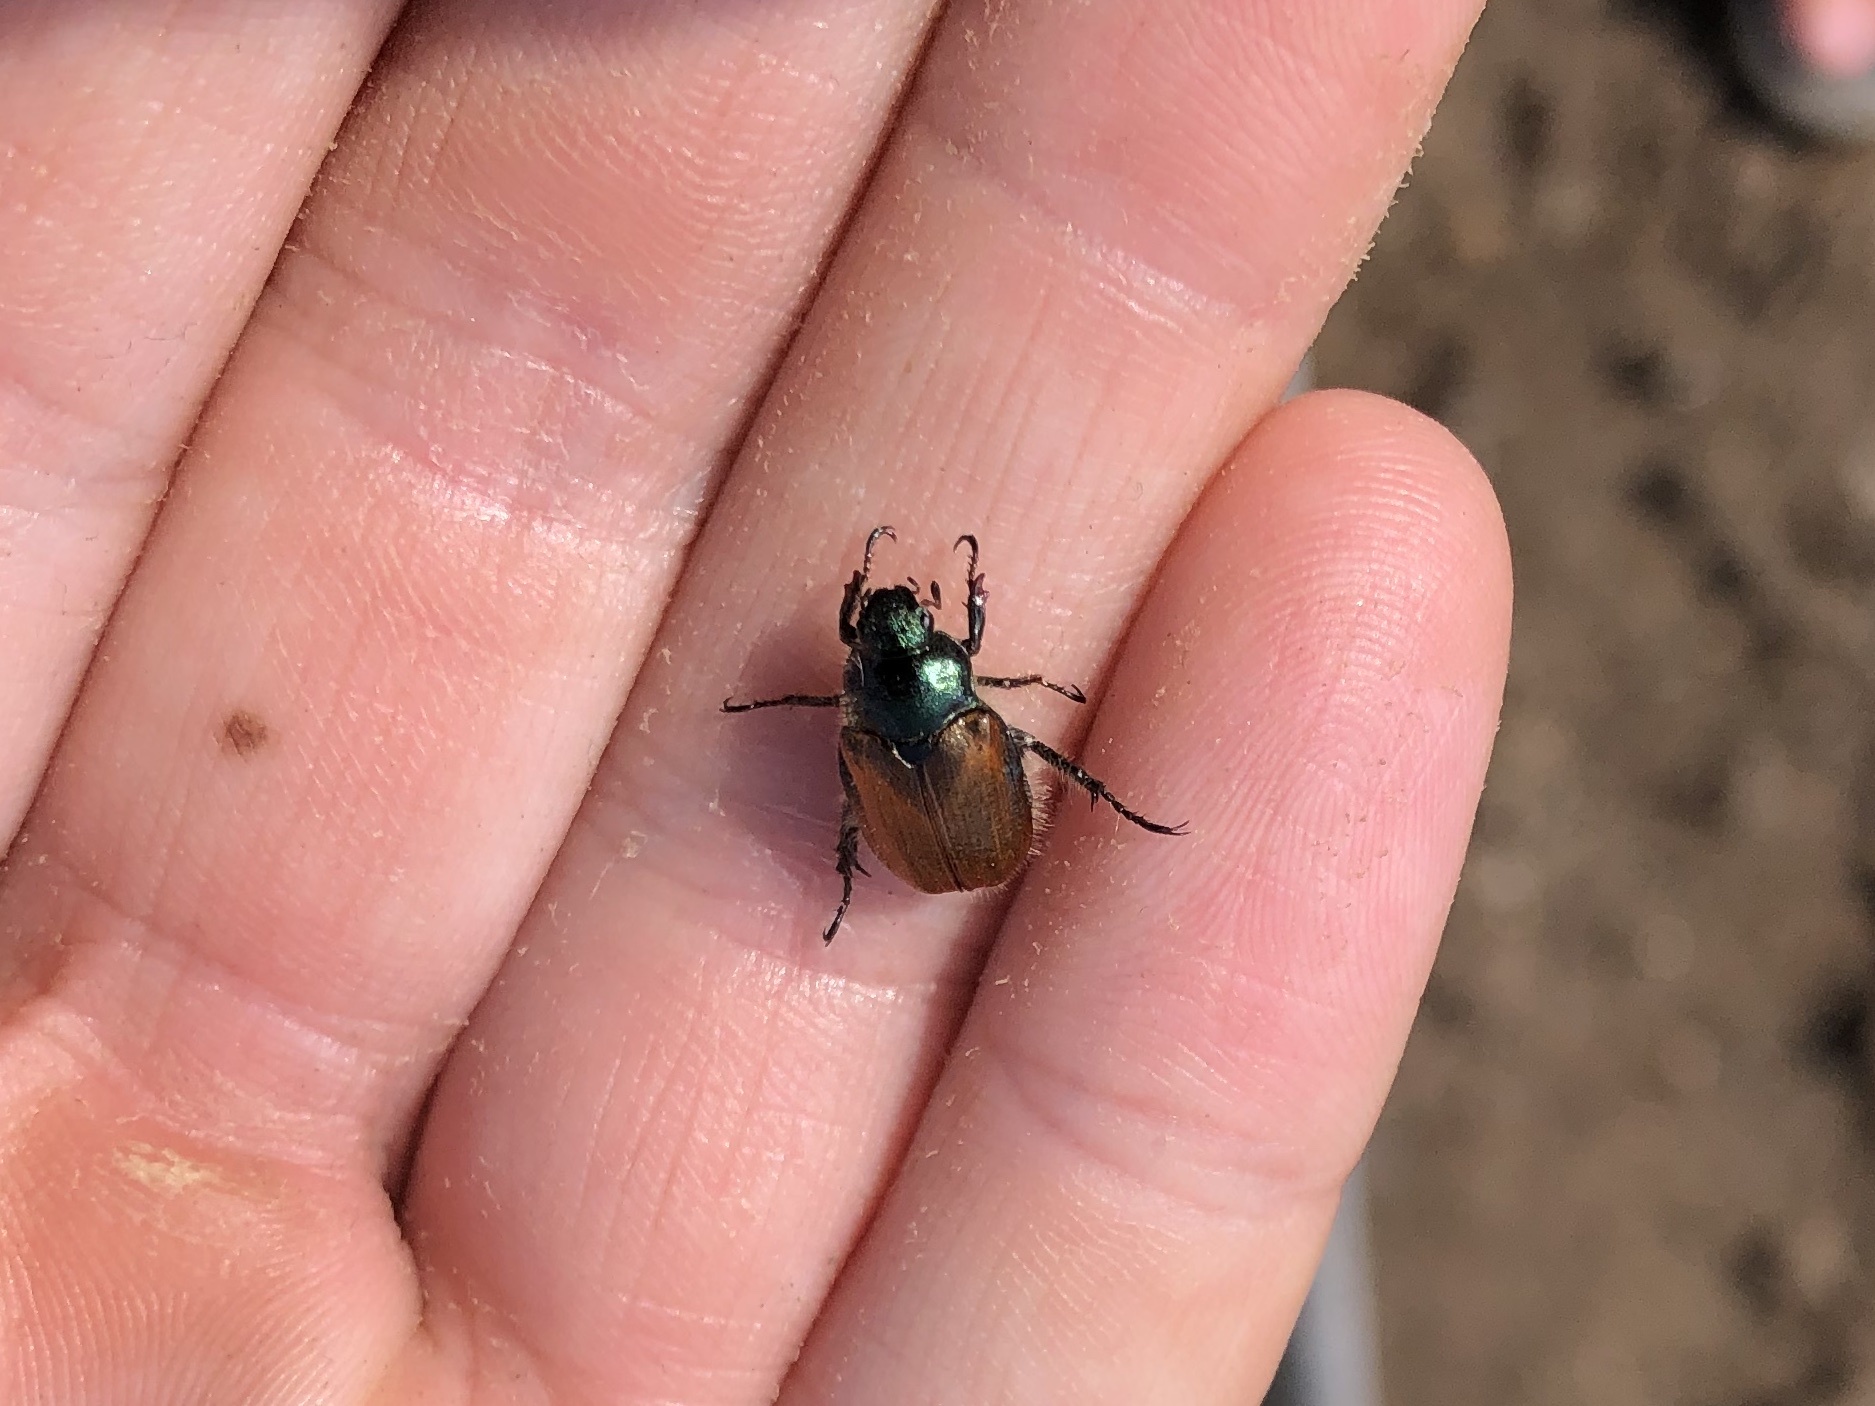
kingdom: Animalia
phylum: Arthropoda
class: Insecta
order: Coleoptera
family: Scarabaeidae
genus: Phyllopertha
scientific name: Phyllopertha horticola
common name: Garden chafer
